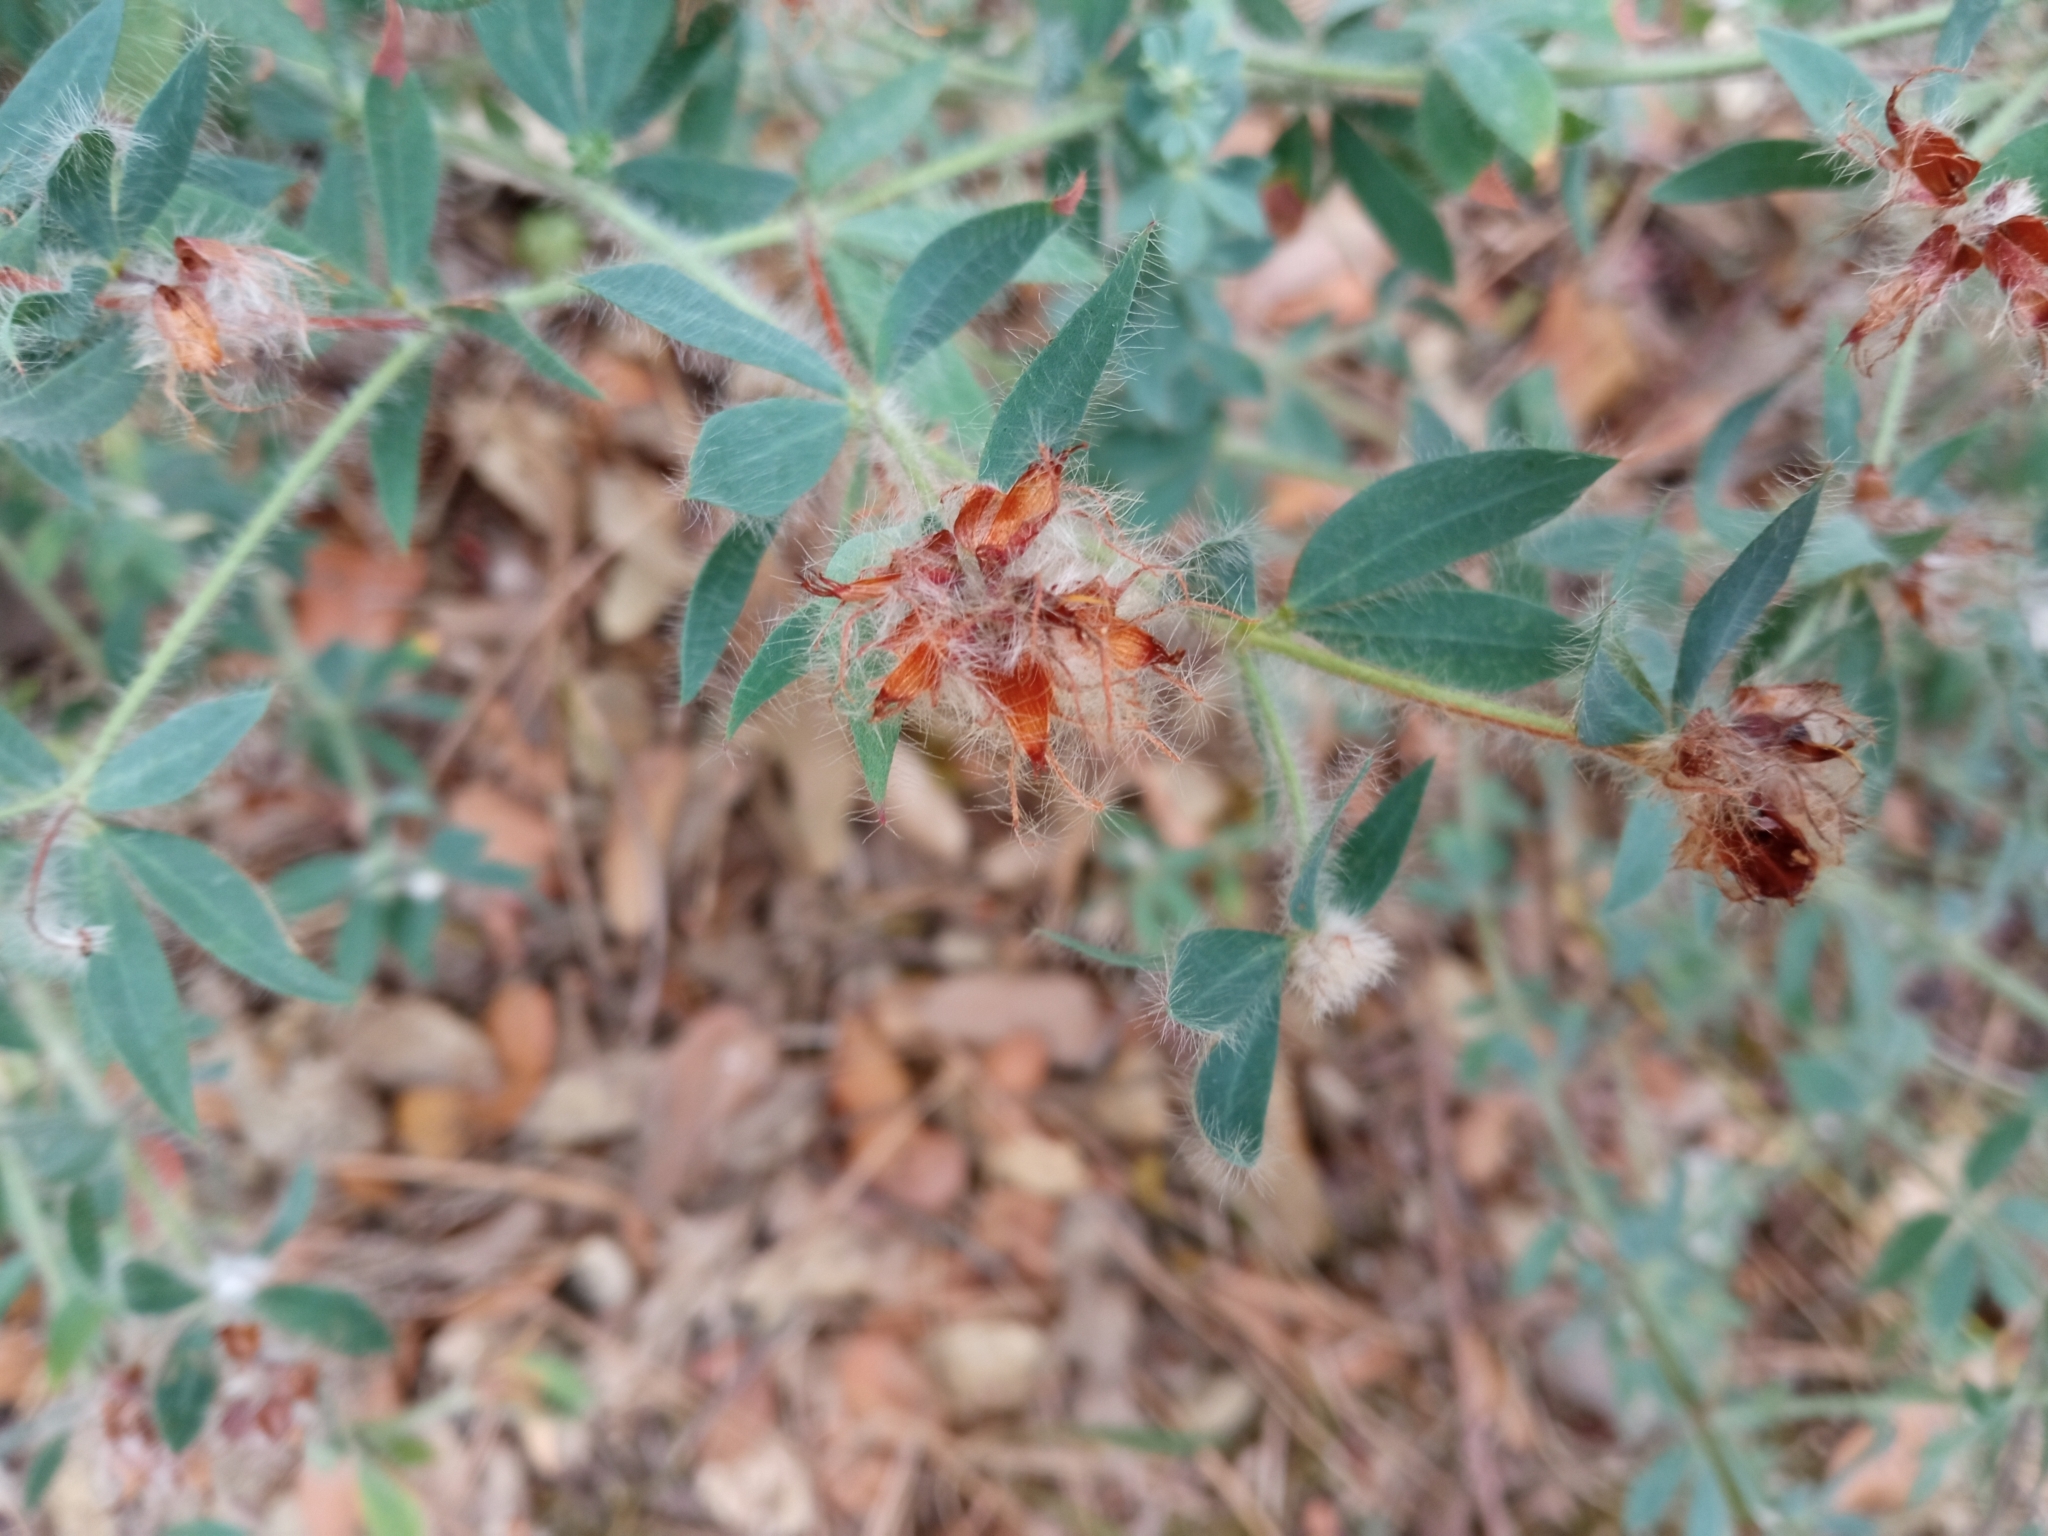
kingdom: Plantae
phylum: Tracheophyta
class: Magnoliopsida
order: Fabales
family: Fabaceae
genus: Lotus
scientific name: Lotus hirsutus
